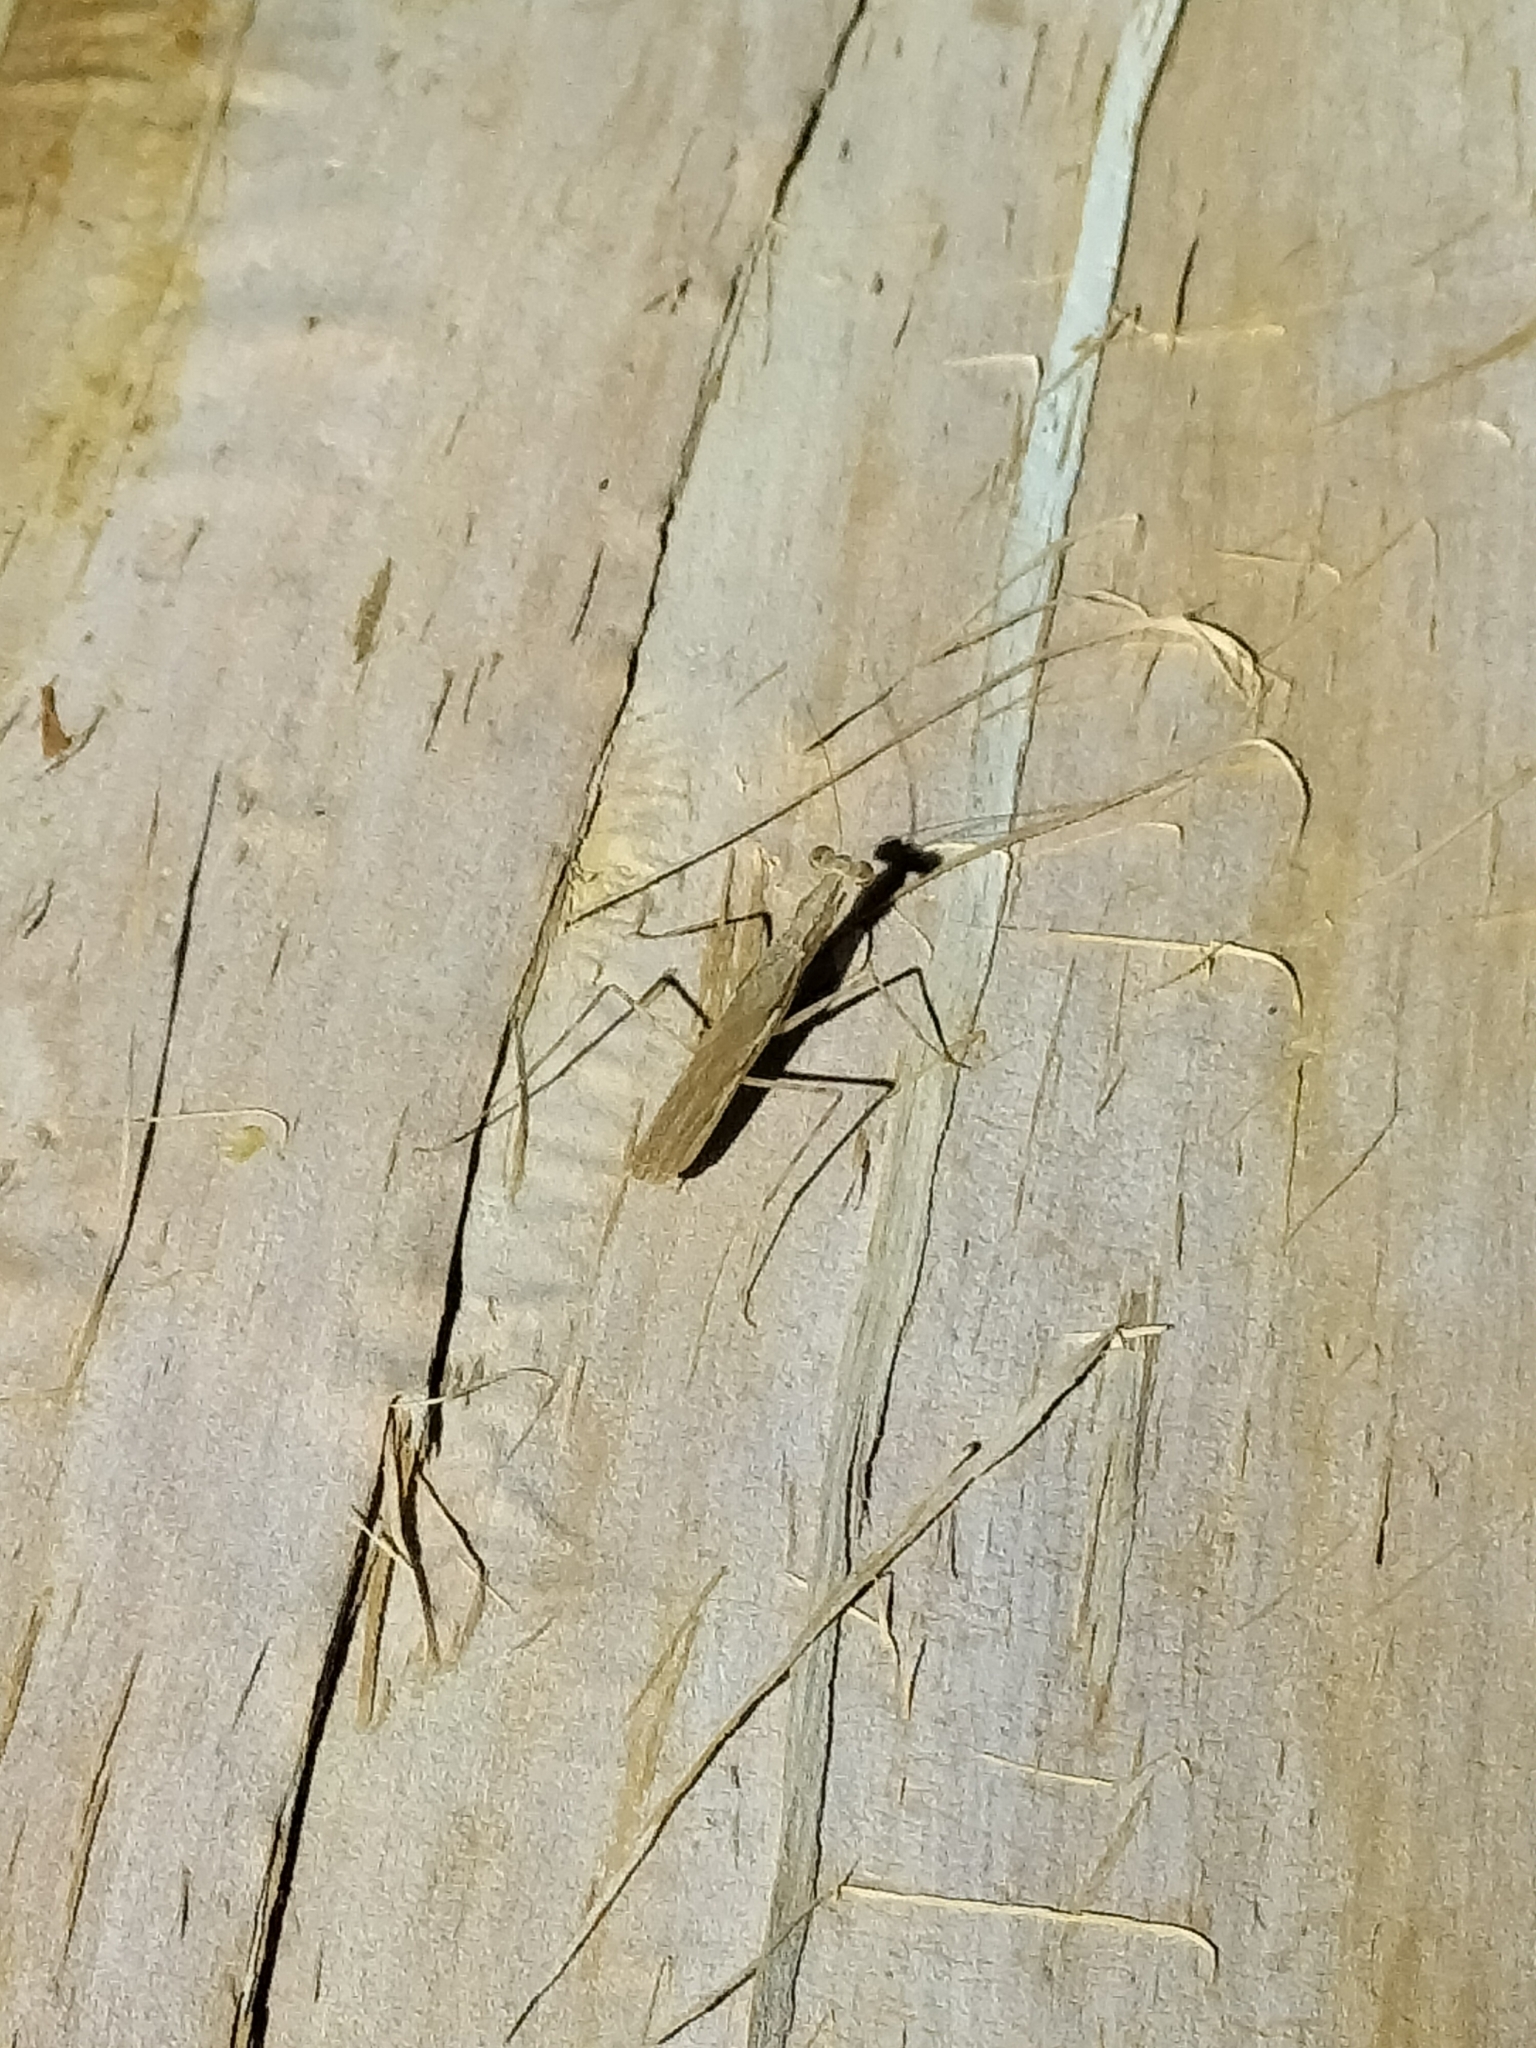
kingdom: Animalia
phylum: Arthropoda
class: Insecta
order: Mantodea
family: Nanomantidae
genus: Ima
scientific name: Ima fusca
